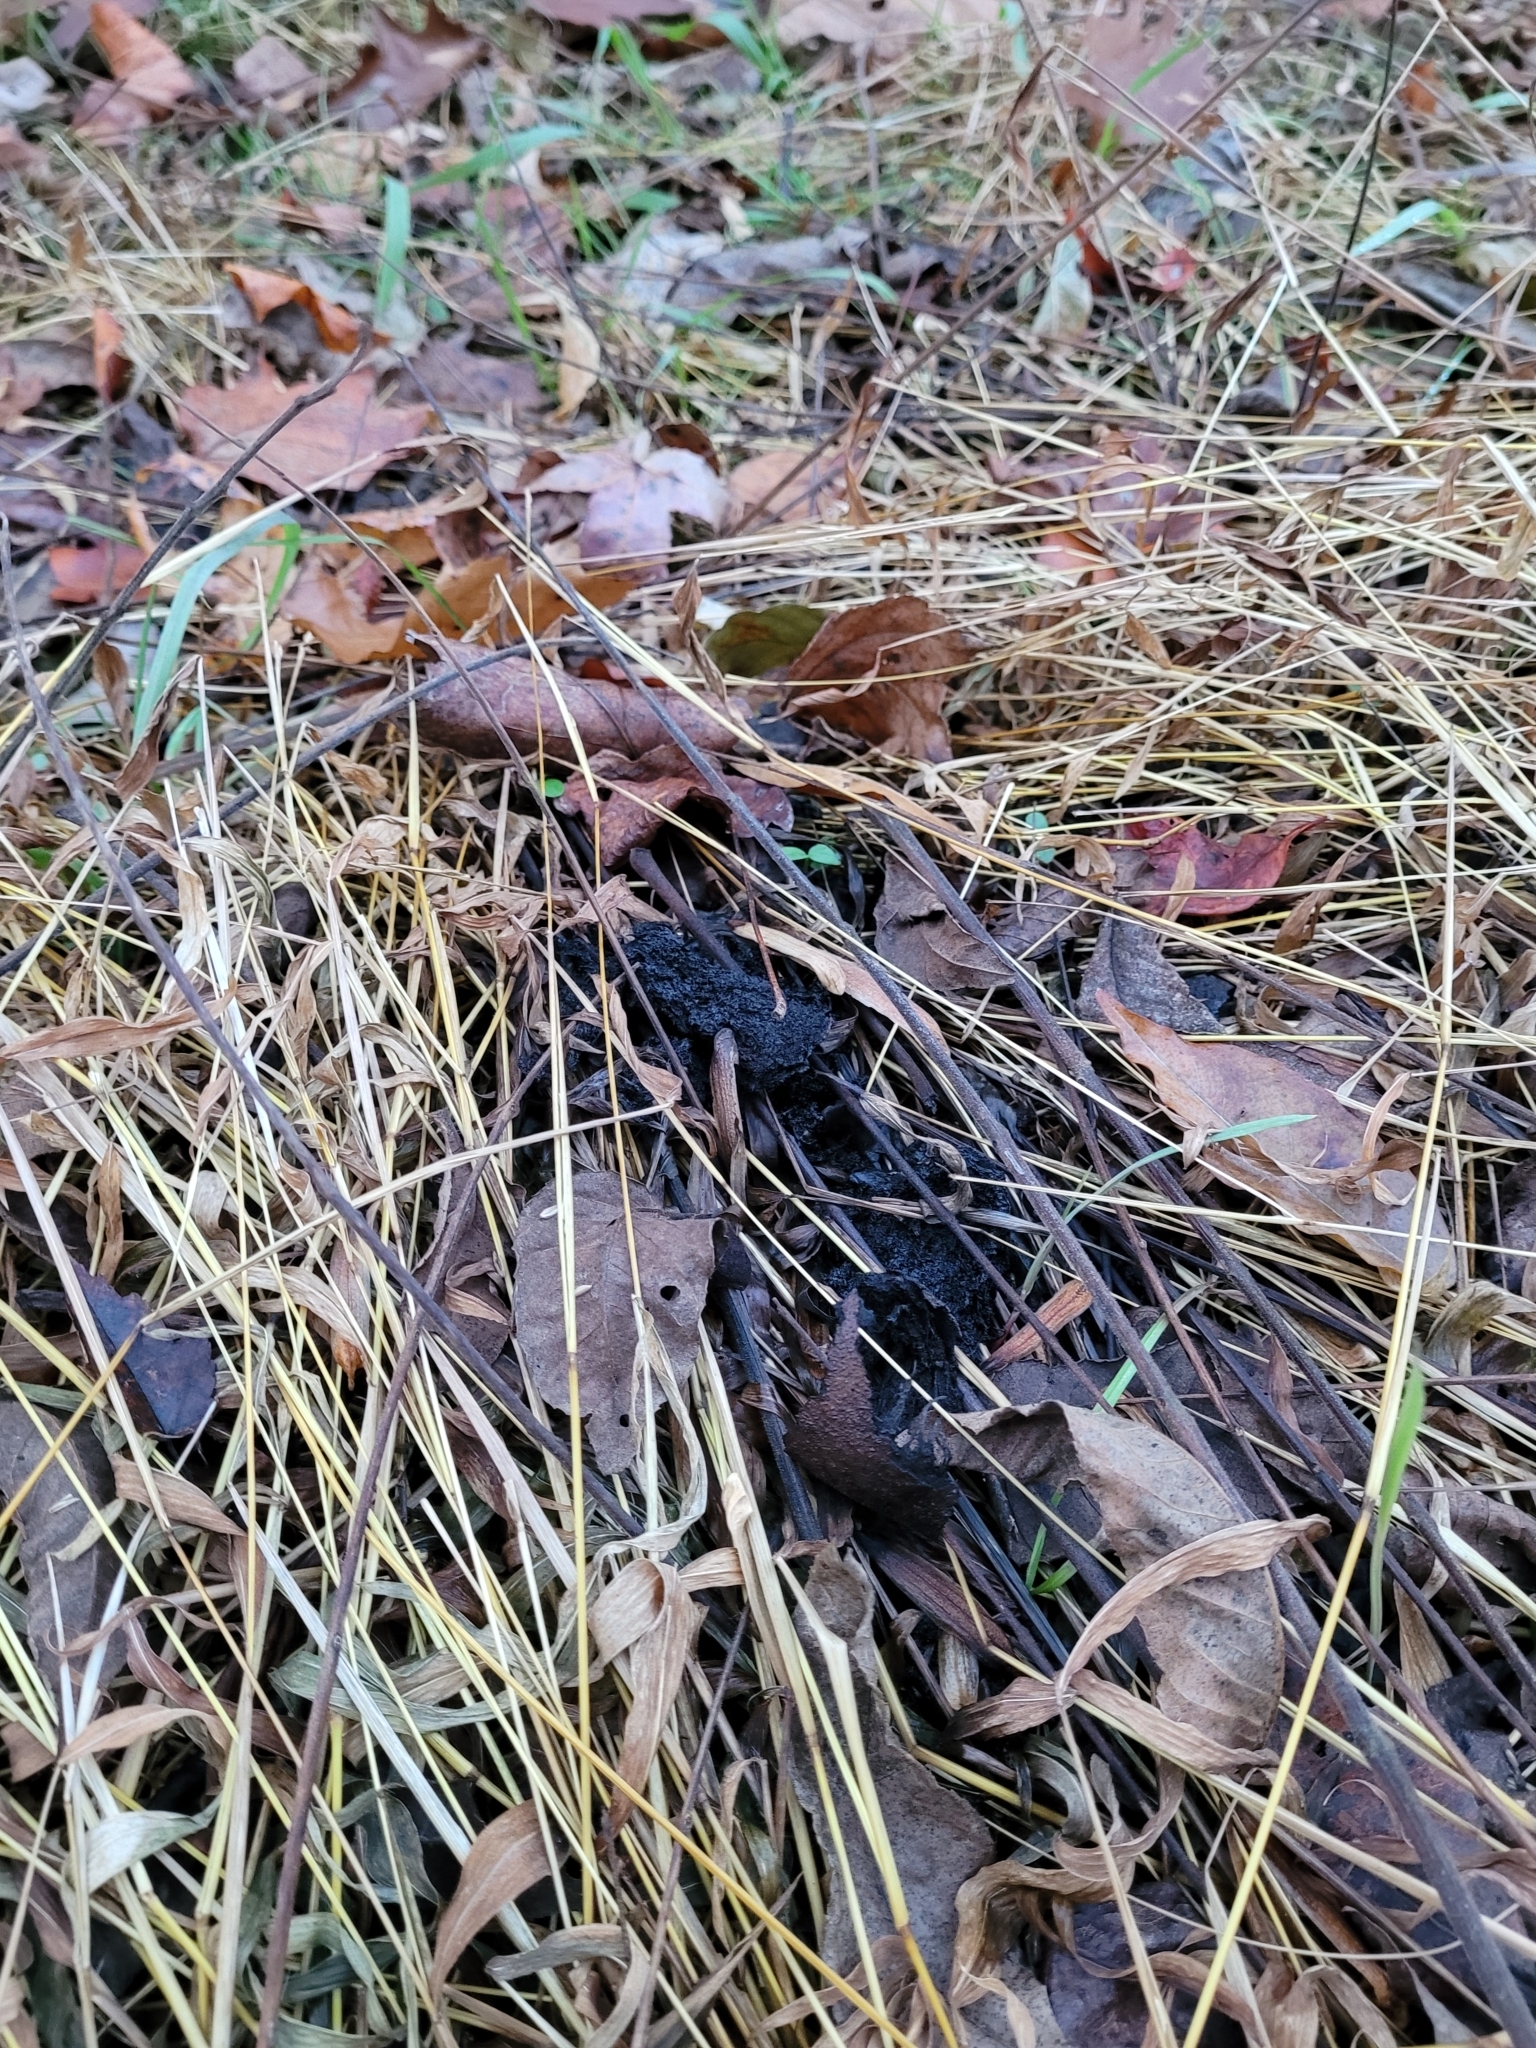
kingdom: Plantae
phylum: Tracheophyta
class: Magnoliopsida
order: Fagales
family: Juglandaceae
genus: Juglans
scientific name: Juglans nigra
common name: Black walnut
